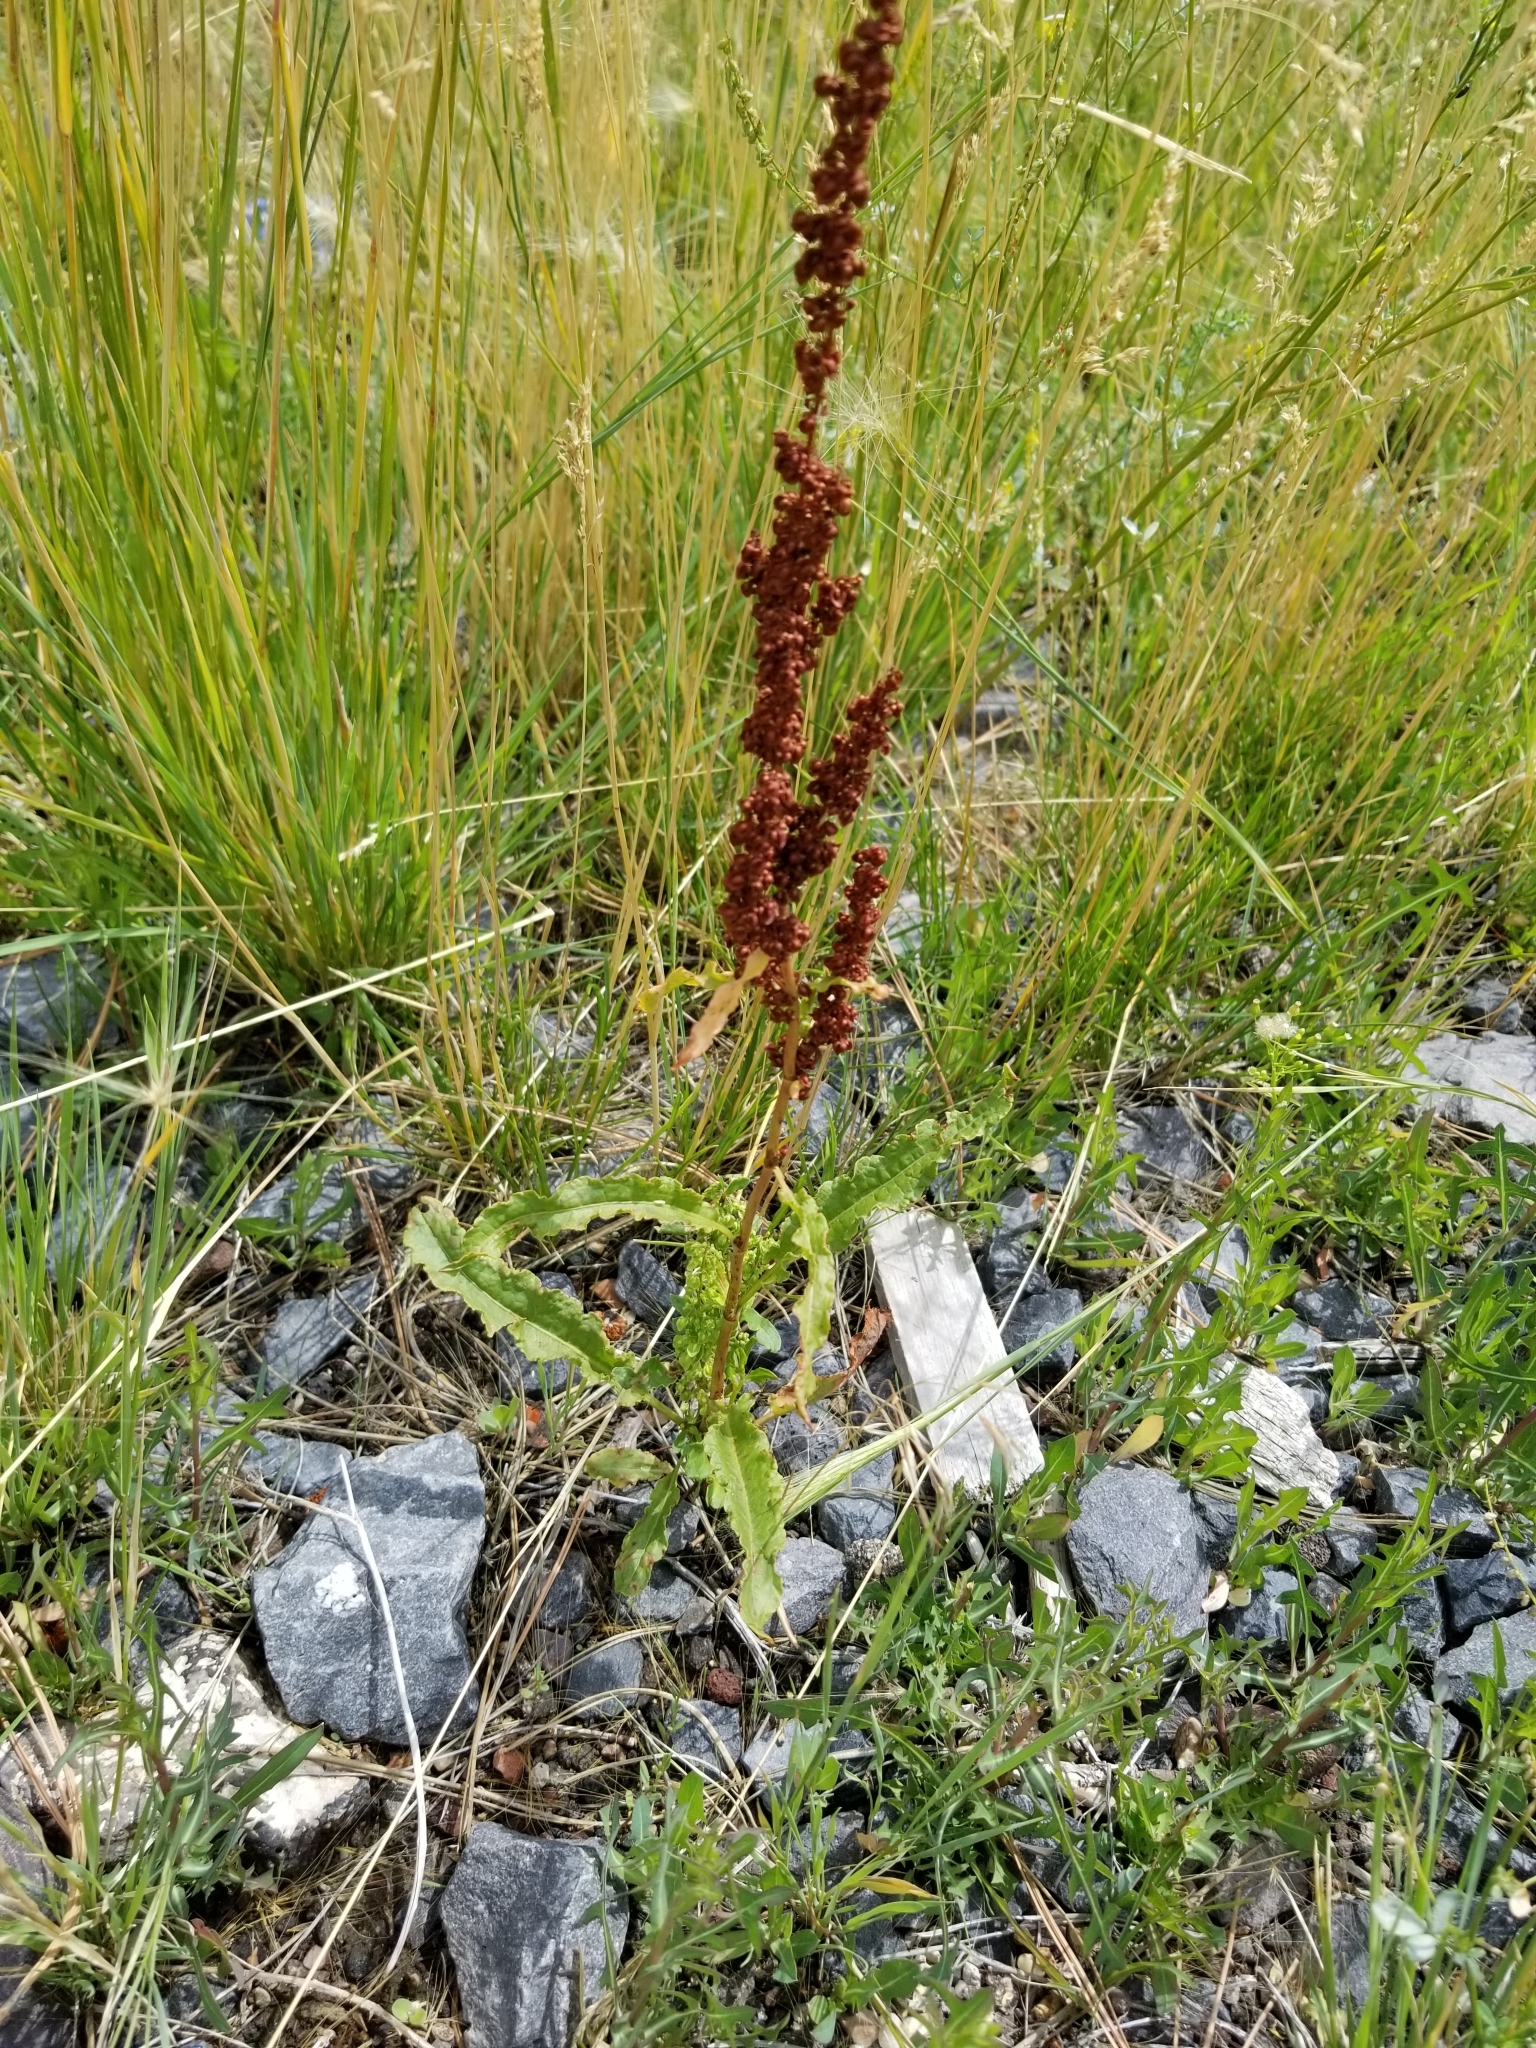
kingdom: Plantae
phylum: Tracheophyta
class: Magnoliopsida
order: Caryophyllales
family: Polygonaceae
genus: Rumex
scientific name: Rumex crispus
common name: Curled dock
